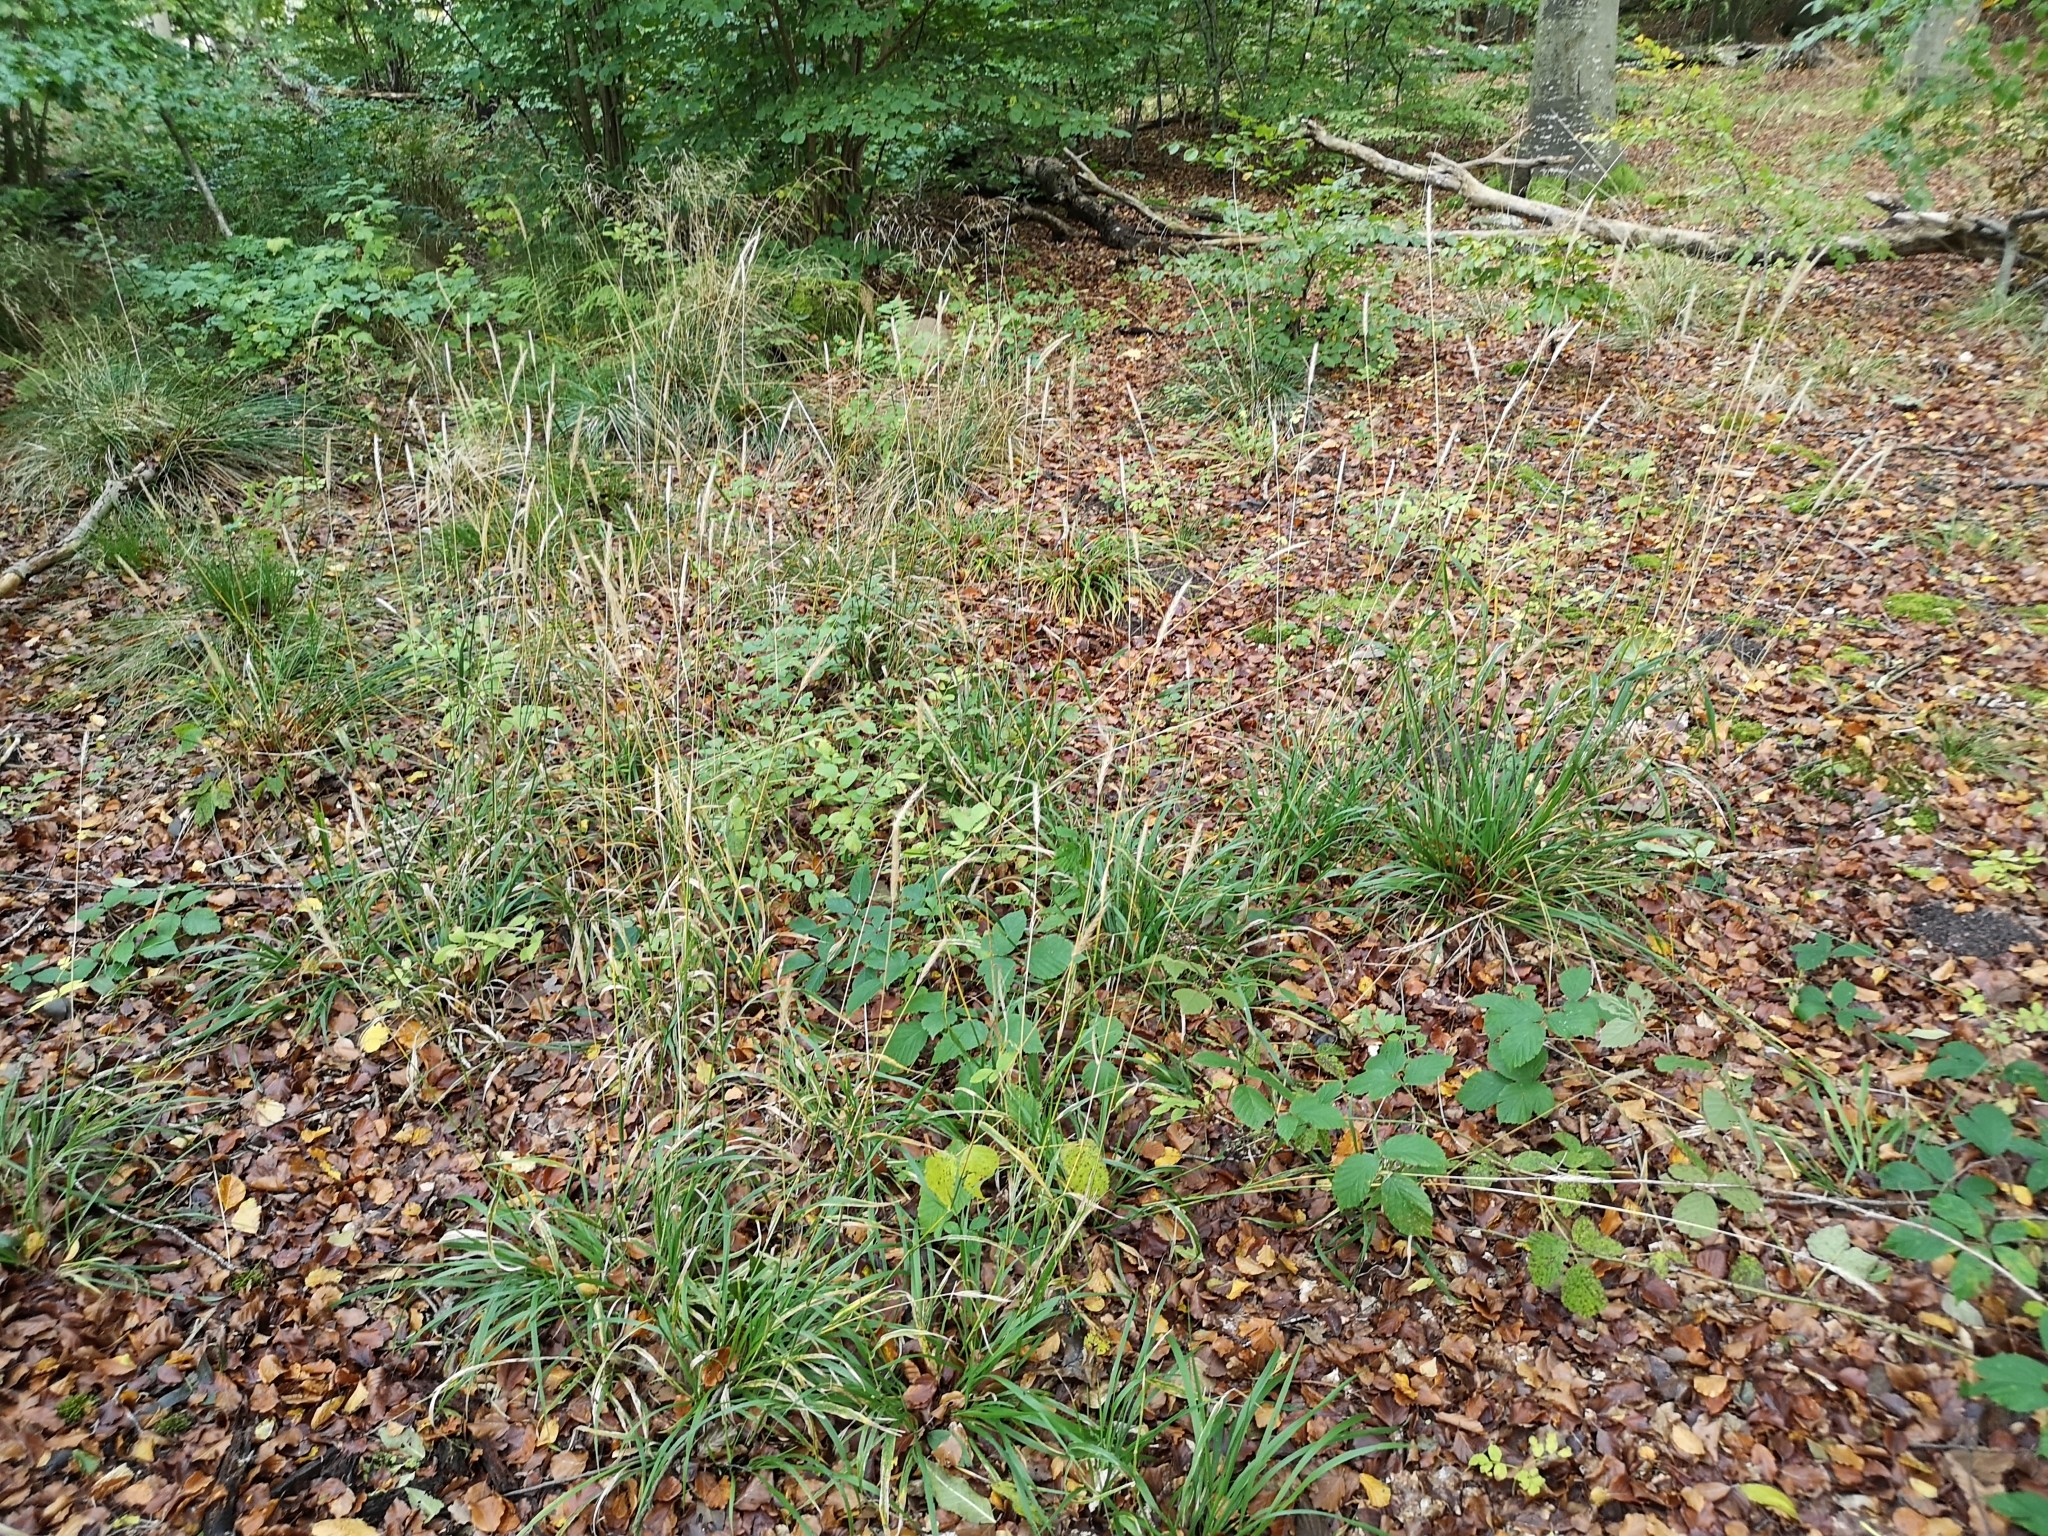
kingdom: Plantae
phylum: Tracheophyta
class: Liliopsida
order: Poales
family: Poaceae
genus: Hordelymus
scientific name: Hordelymus europaeus
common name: Wood-barley
